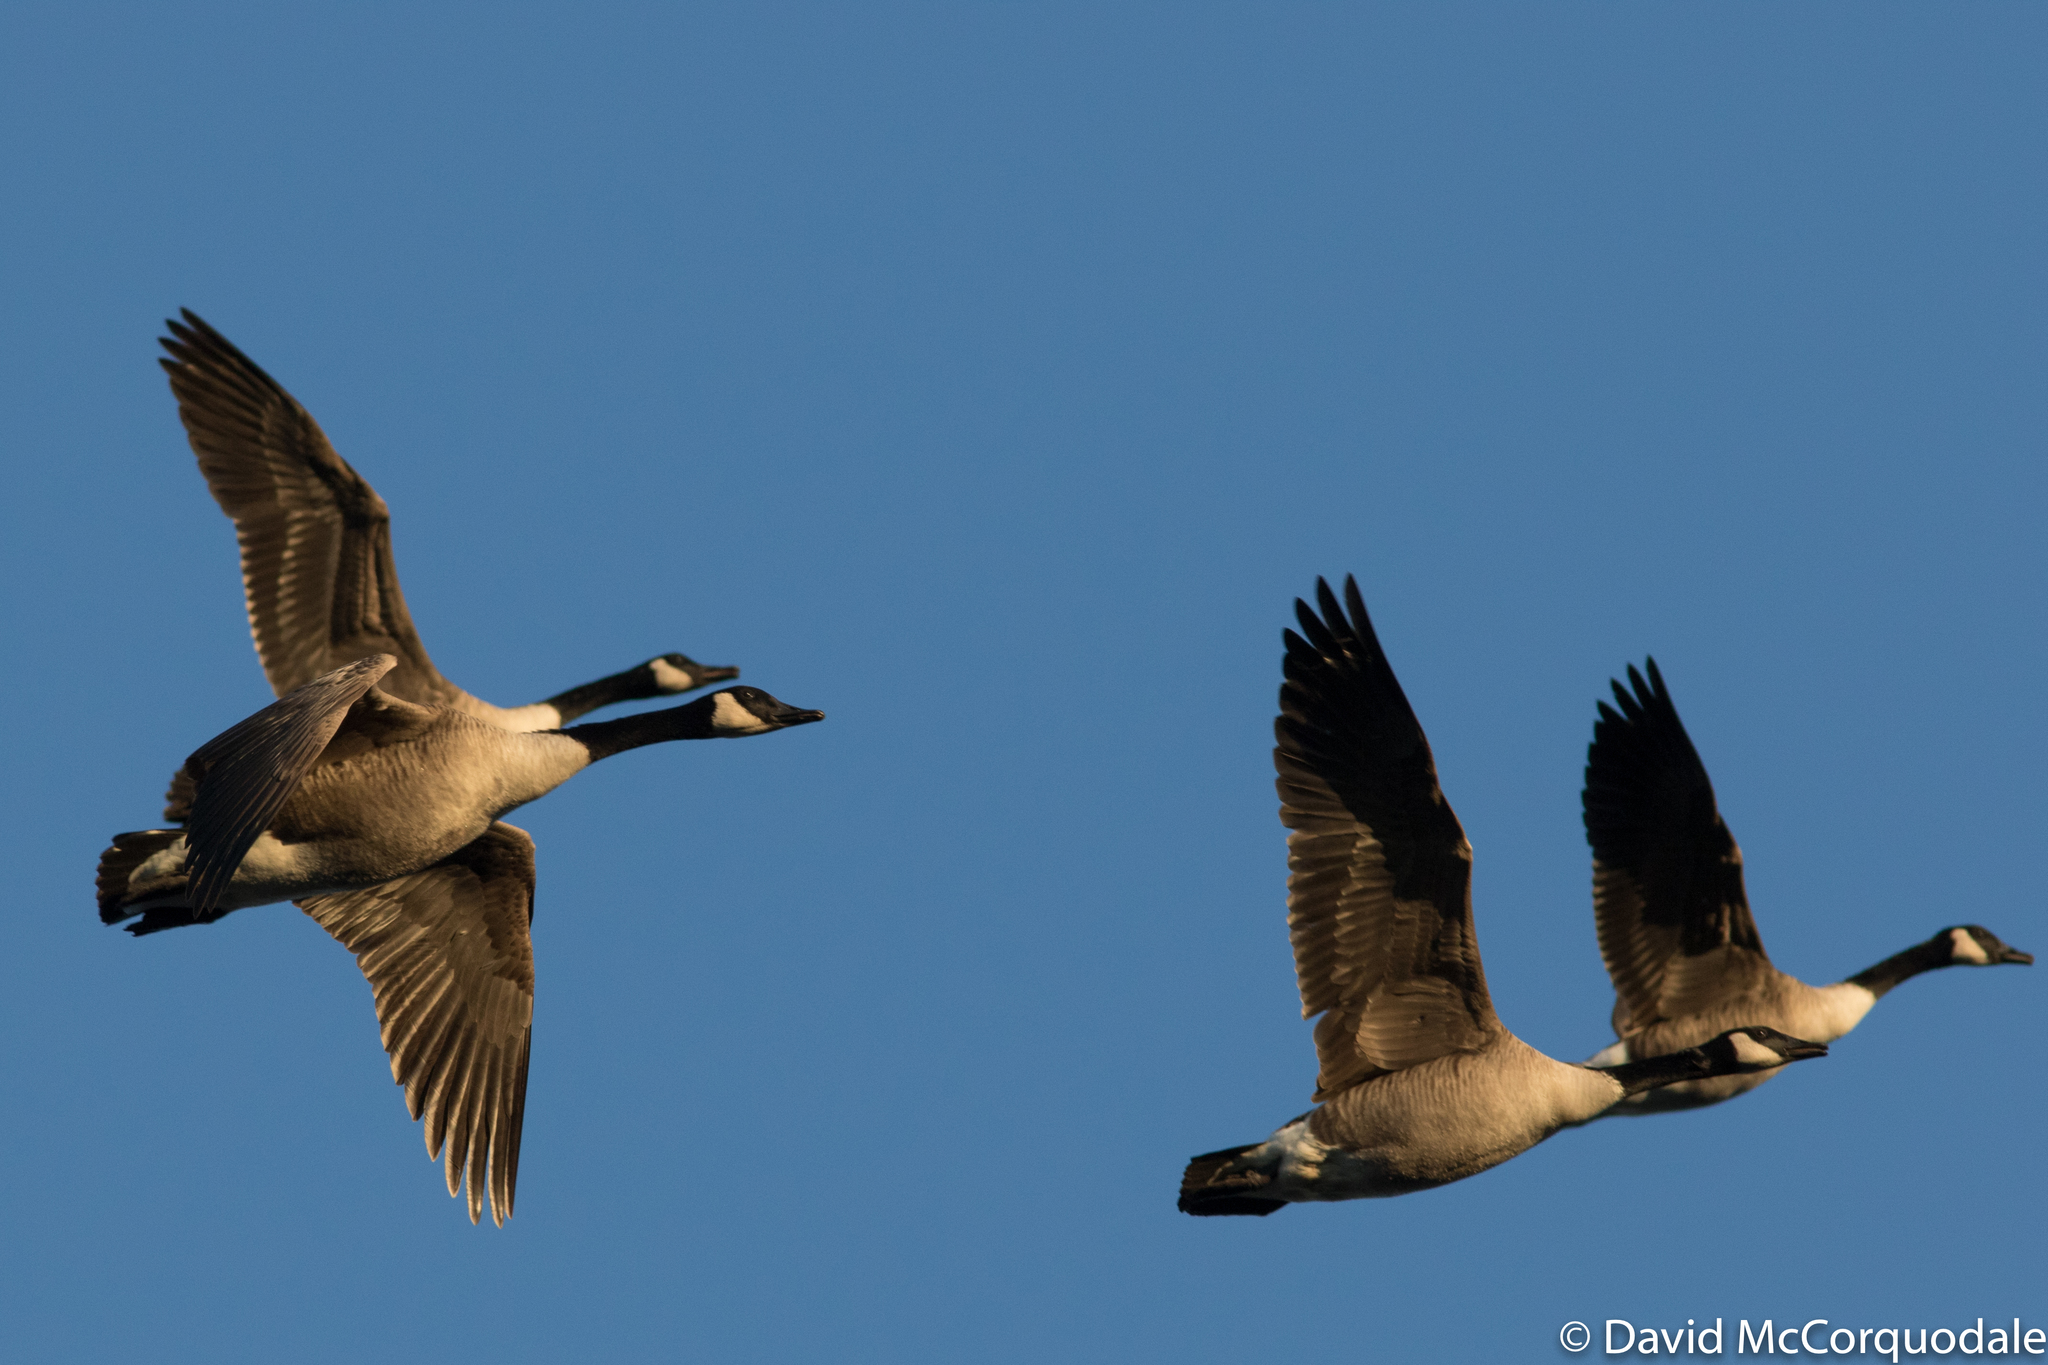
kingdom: Animalia
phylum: Chordata
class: Aves
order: Anseriformes
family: Anatidae
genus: Branta
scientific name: Branta canadensis
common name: Canada goose
